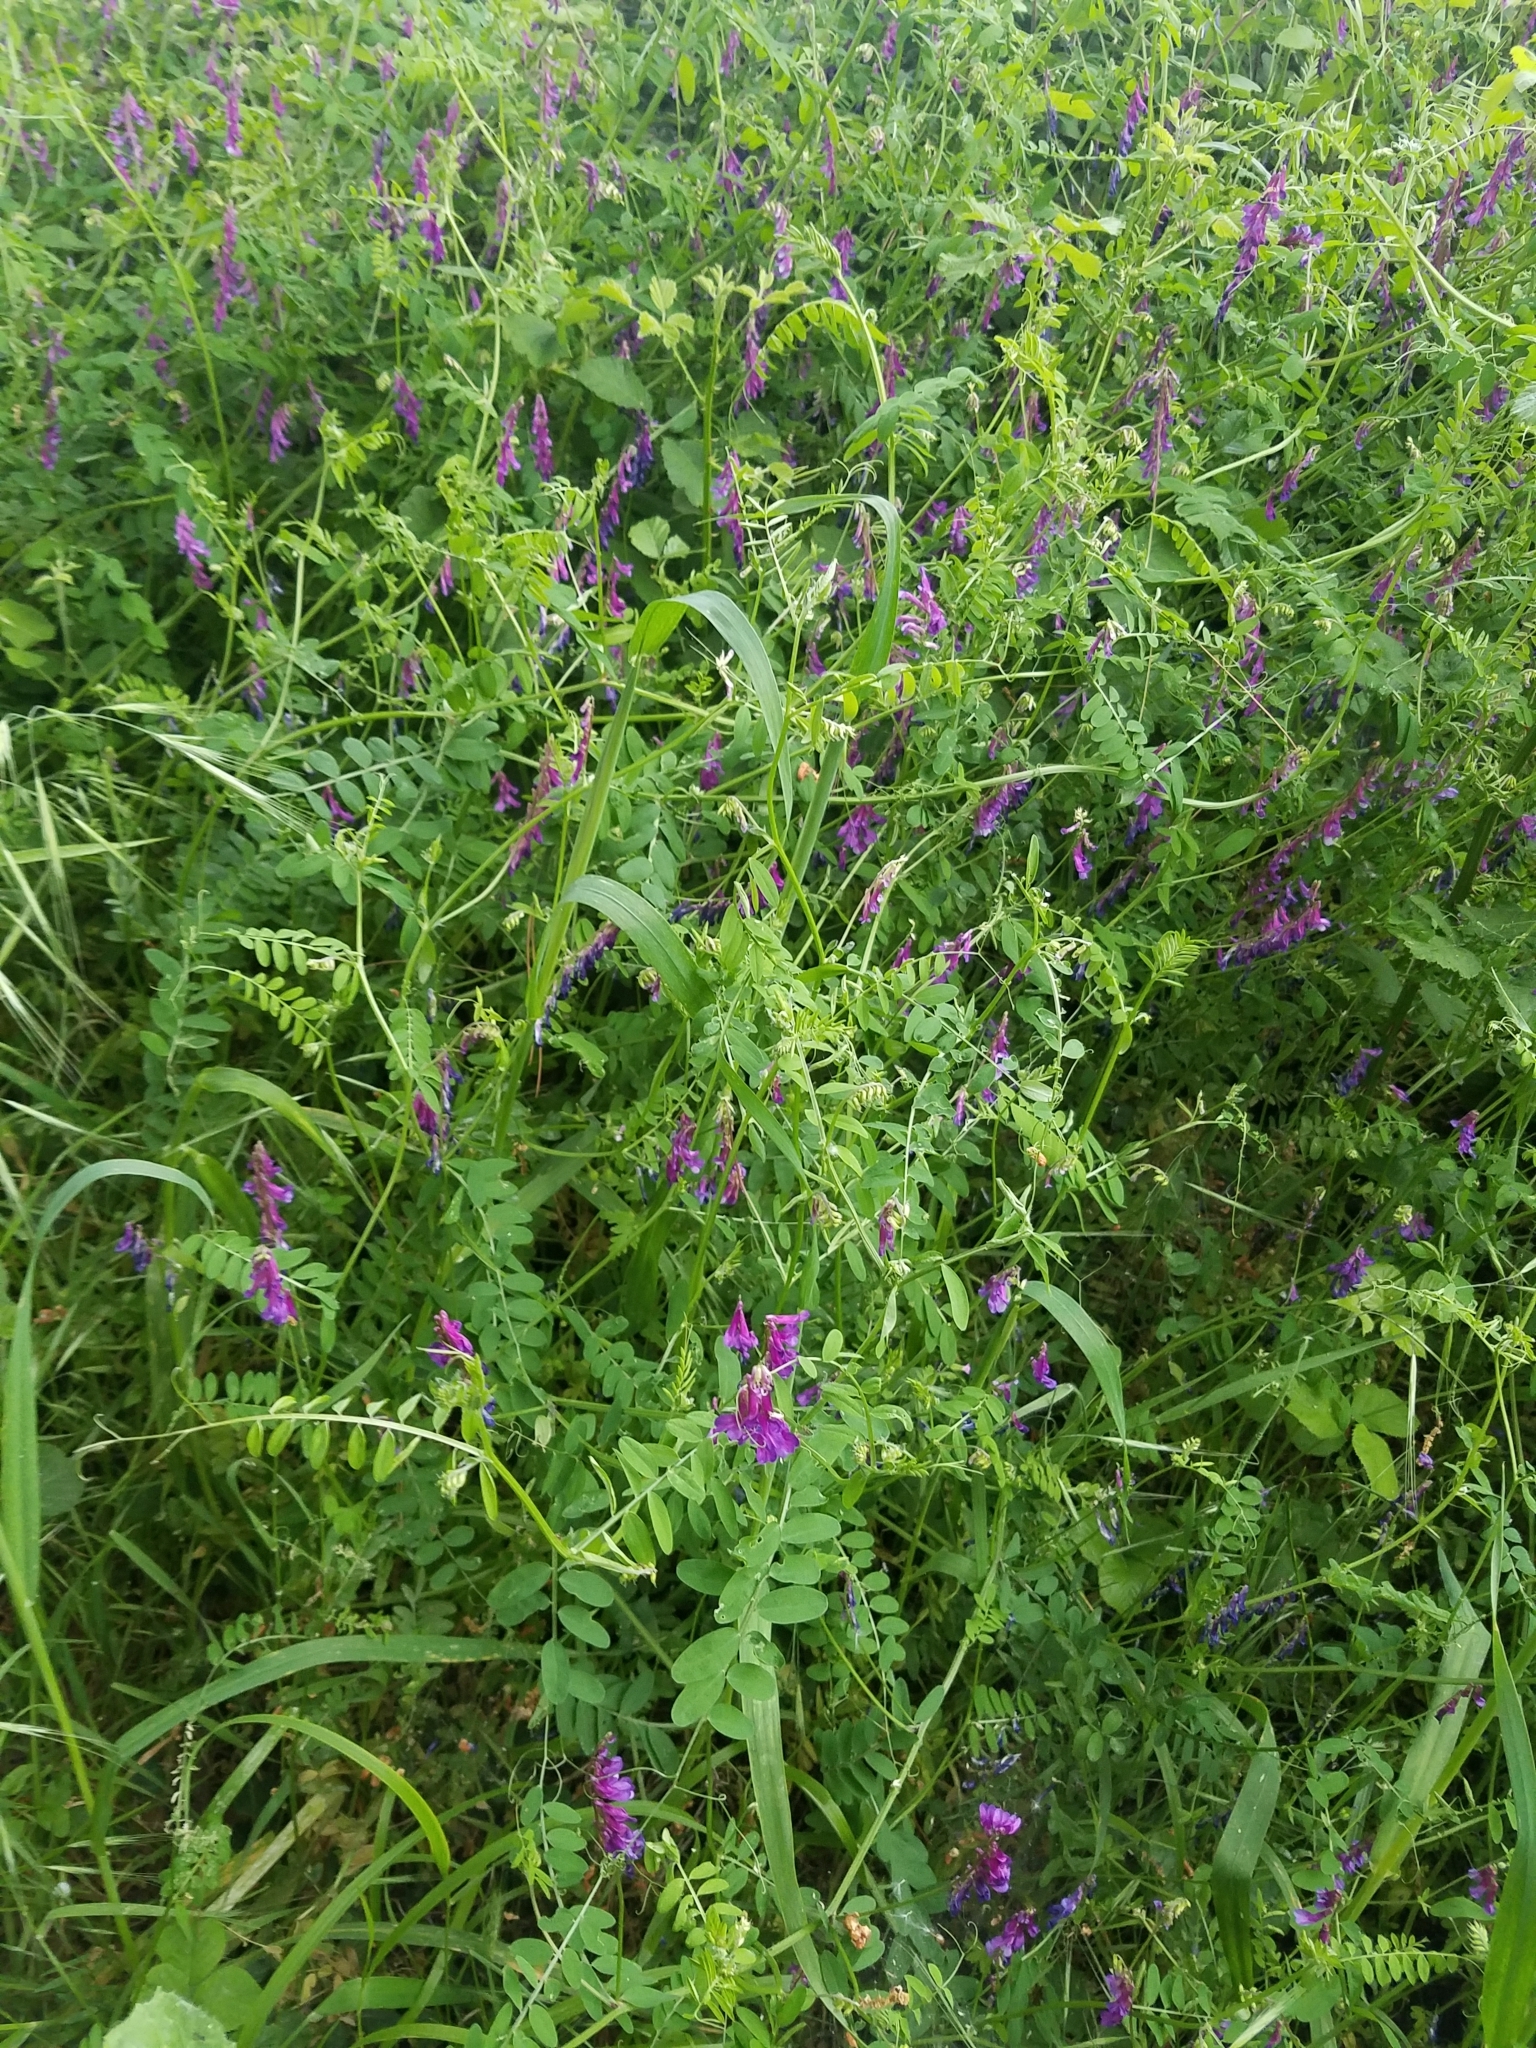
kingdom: Plantae
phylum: Tracheophyta
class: Magnoliopsida
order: Fabales
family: Fabaceae
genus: Vicia
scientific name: Vicia villosa
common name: Fodder vetch
